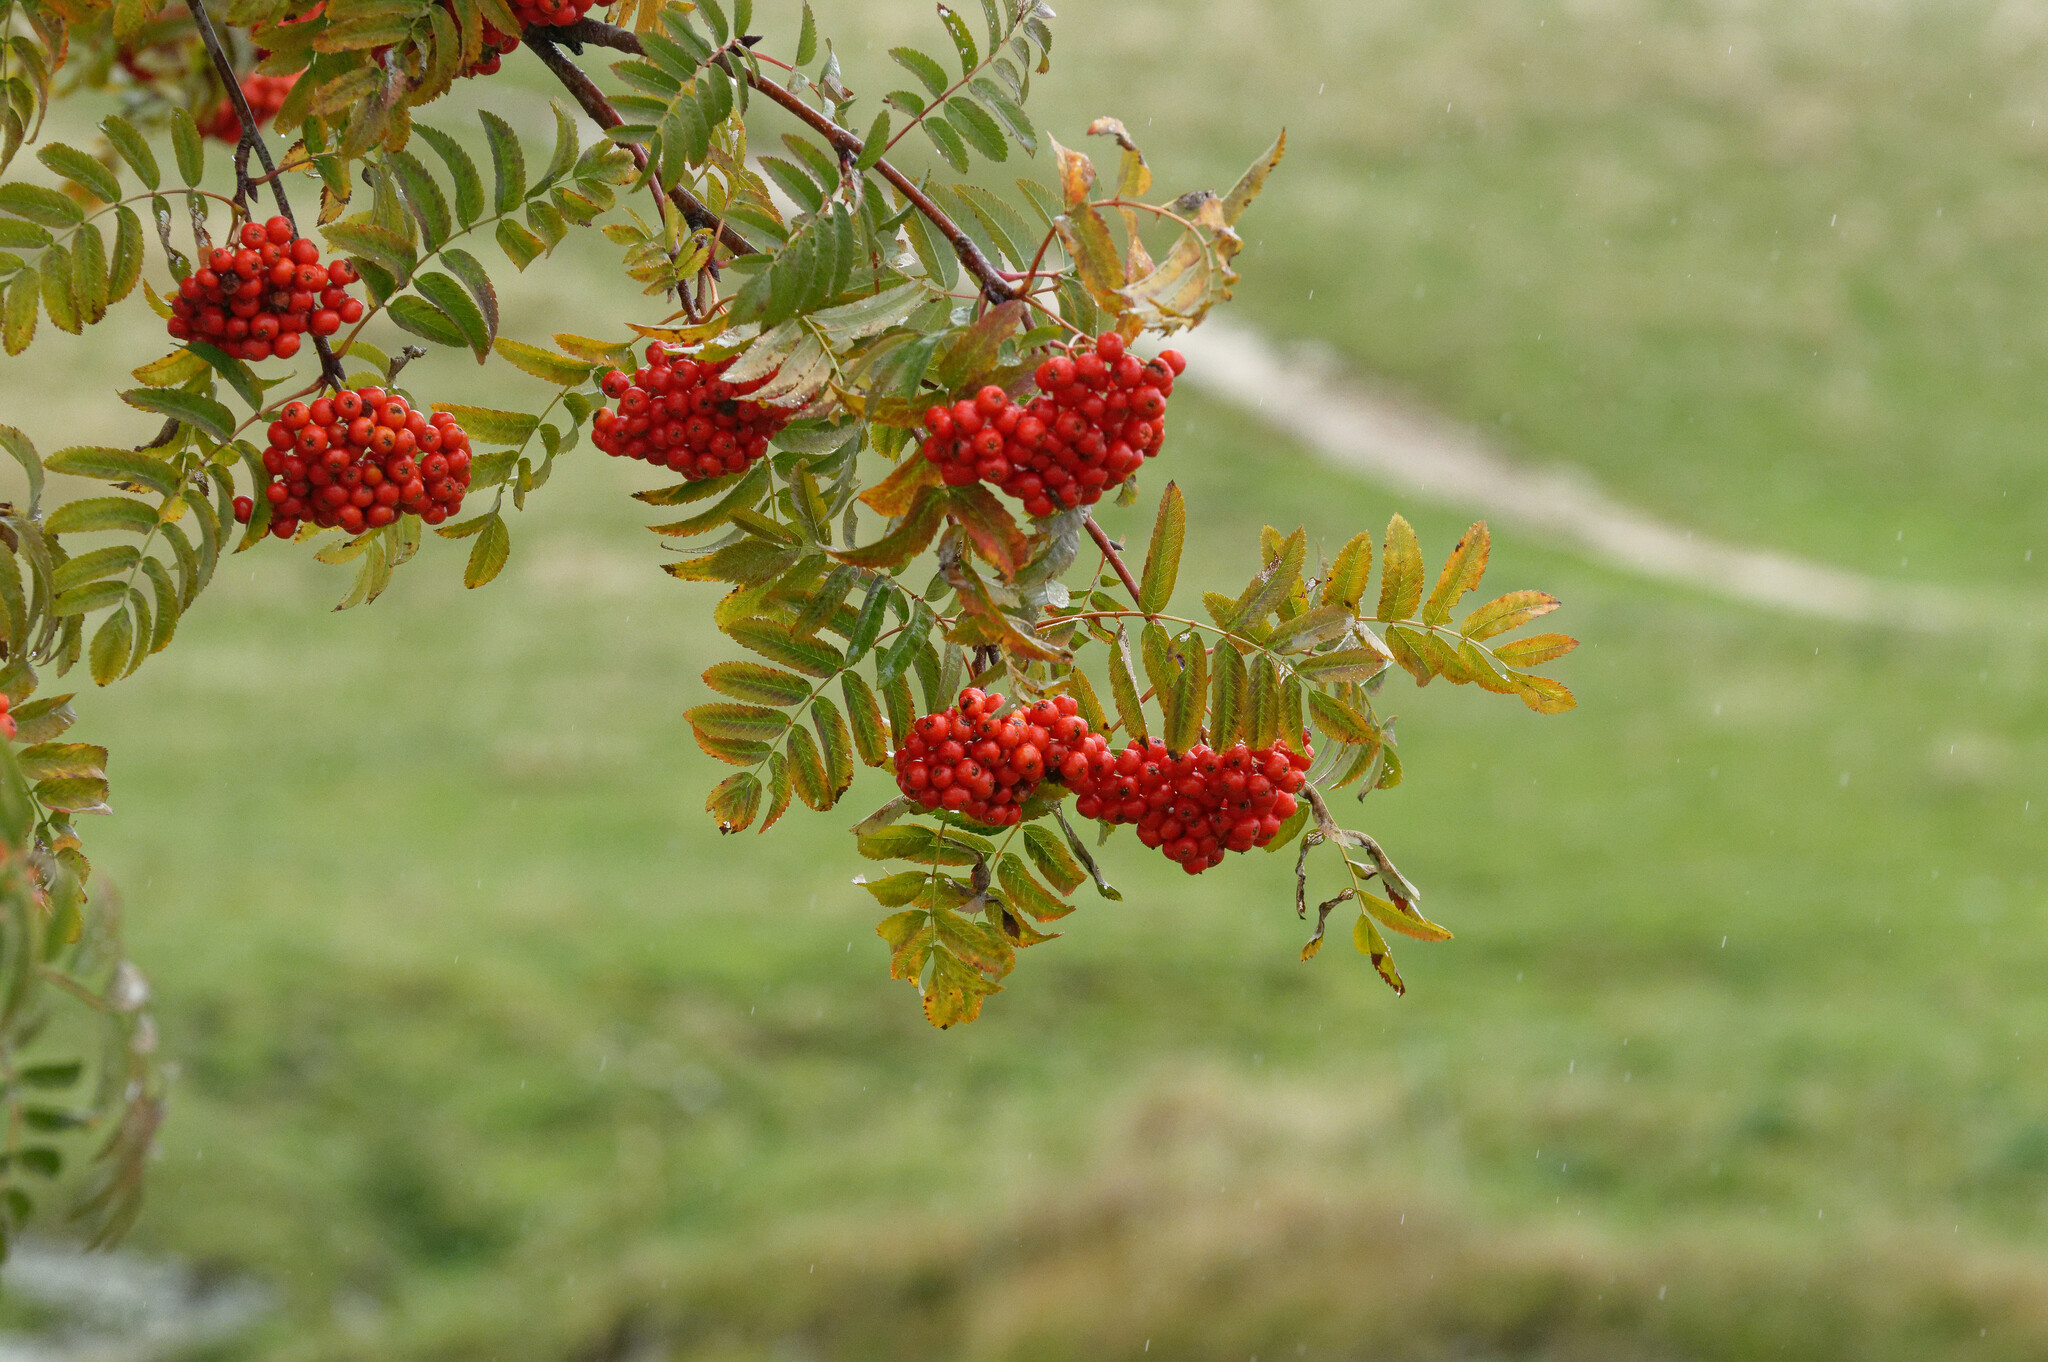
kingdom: Plantae
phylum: Tracheophyta
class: Magnoliopsida
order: Rosales
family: Rosaceae
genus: Sorbus
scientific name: Sorbus aucuparia
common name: Rowan
